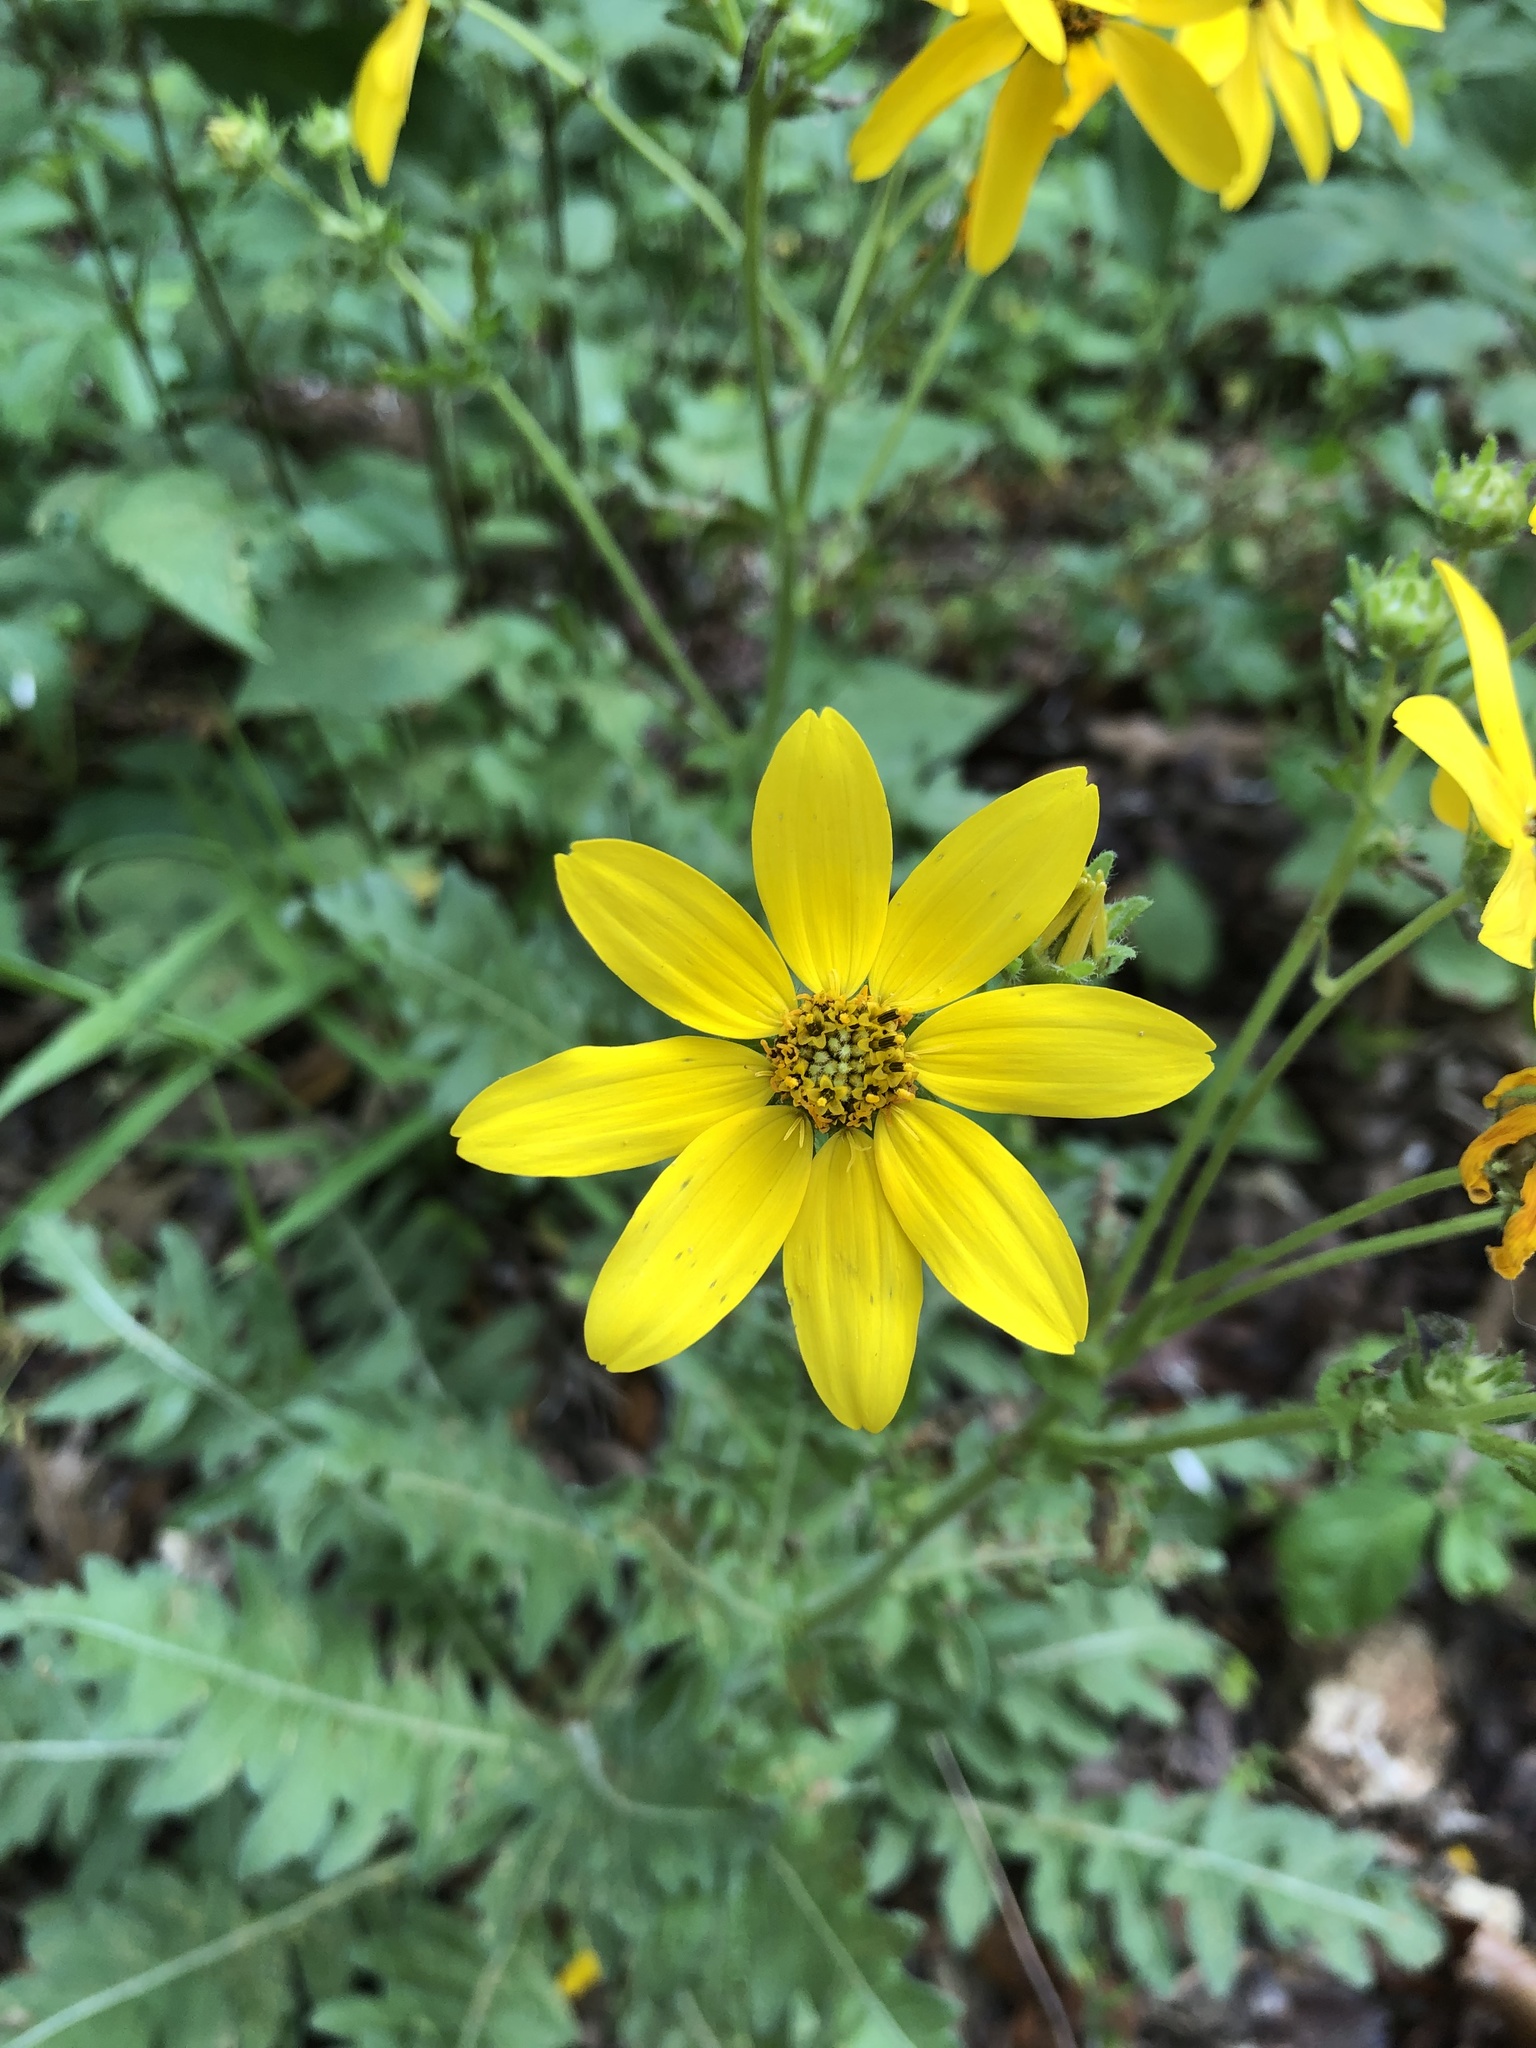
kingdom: Plantae
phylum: Tracheophyta
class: Magnoliopsida
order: Asterales
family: Asteraceae
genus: Engelmannia
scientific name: Engelmannia peristenia
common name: Engelmann's daisy
